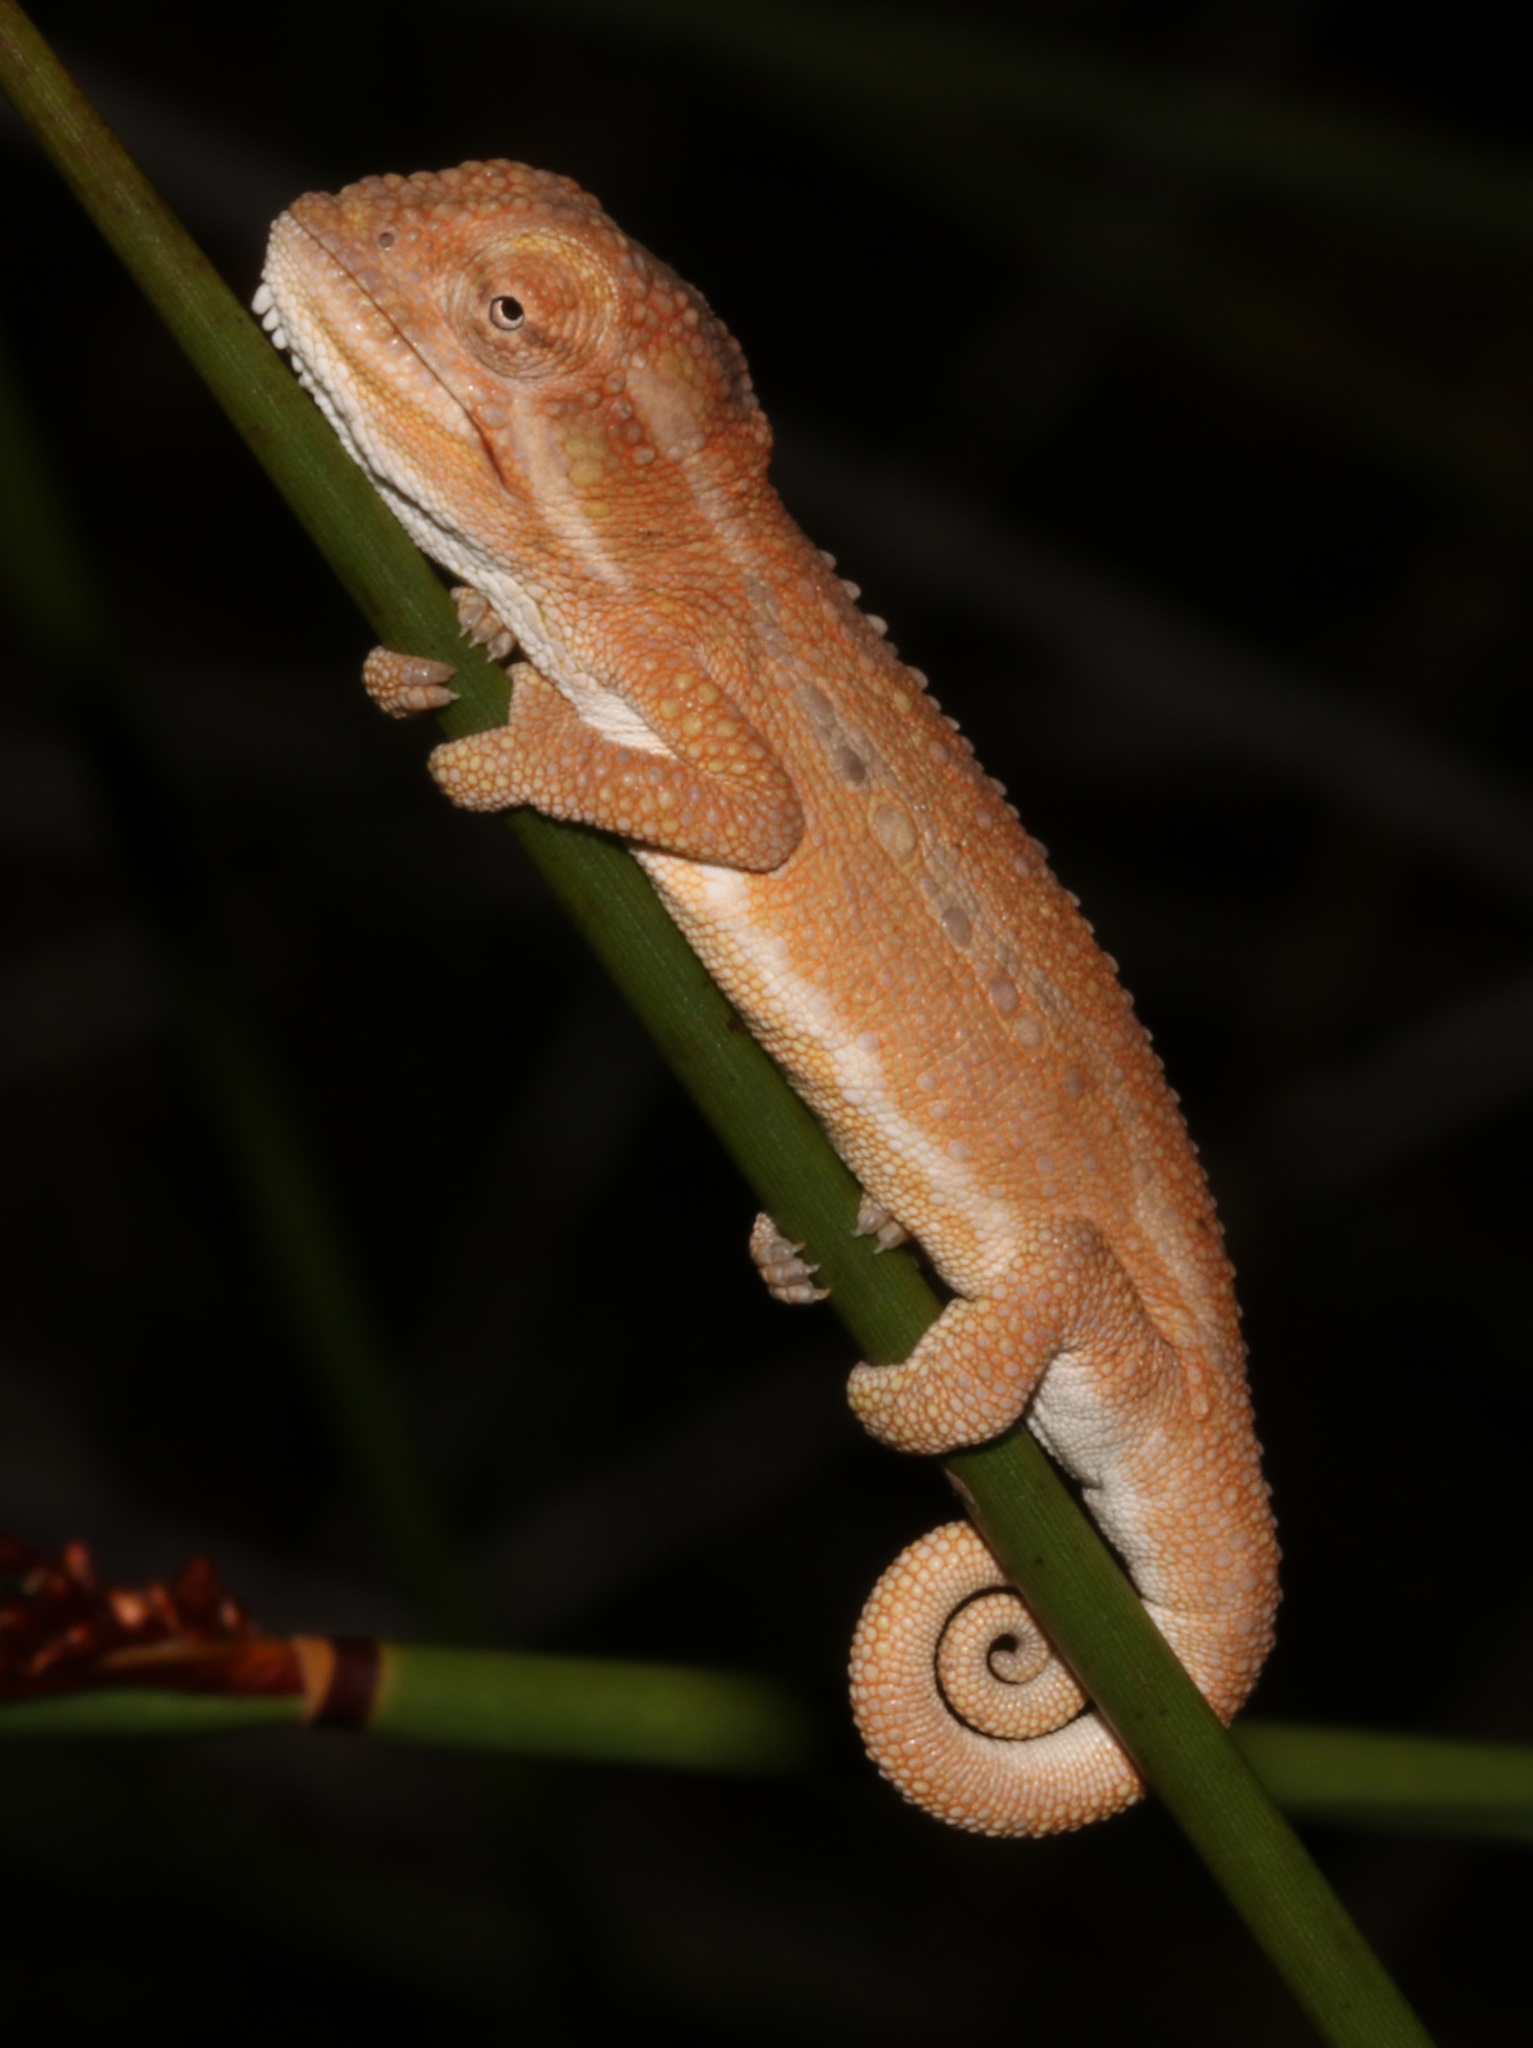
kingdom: Animalia
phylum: Chordata
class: Squamata
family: Chamaeleonidae
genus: Bradypodion
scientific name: Bradypodion pumilum
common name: Cape dwarf chameleon
